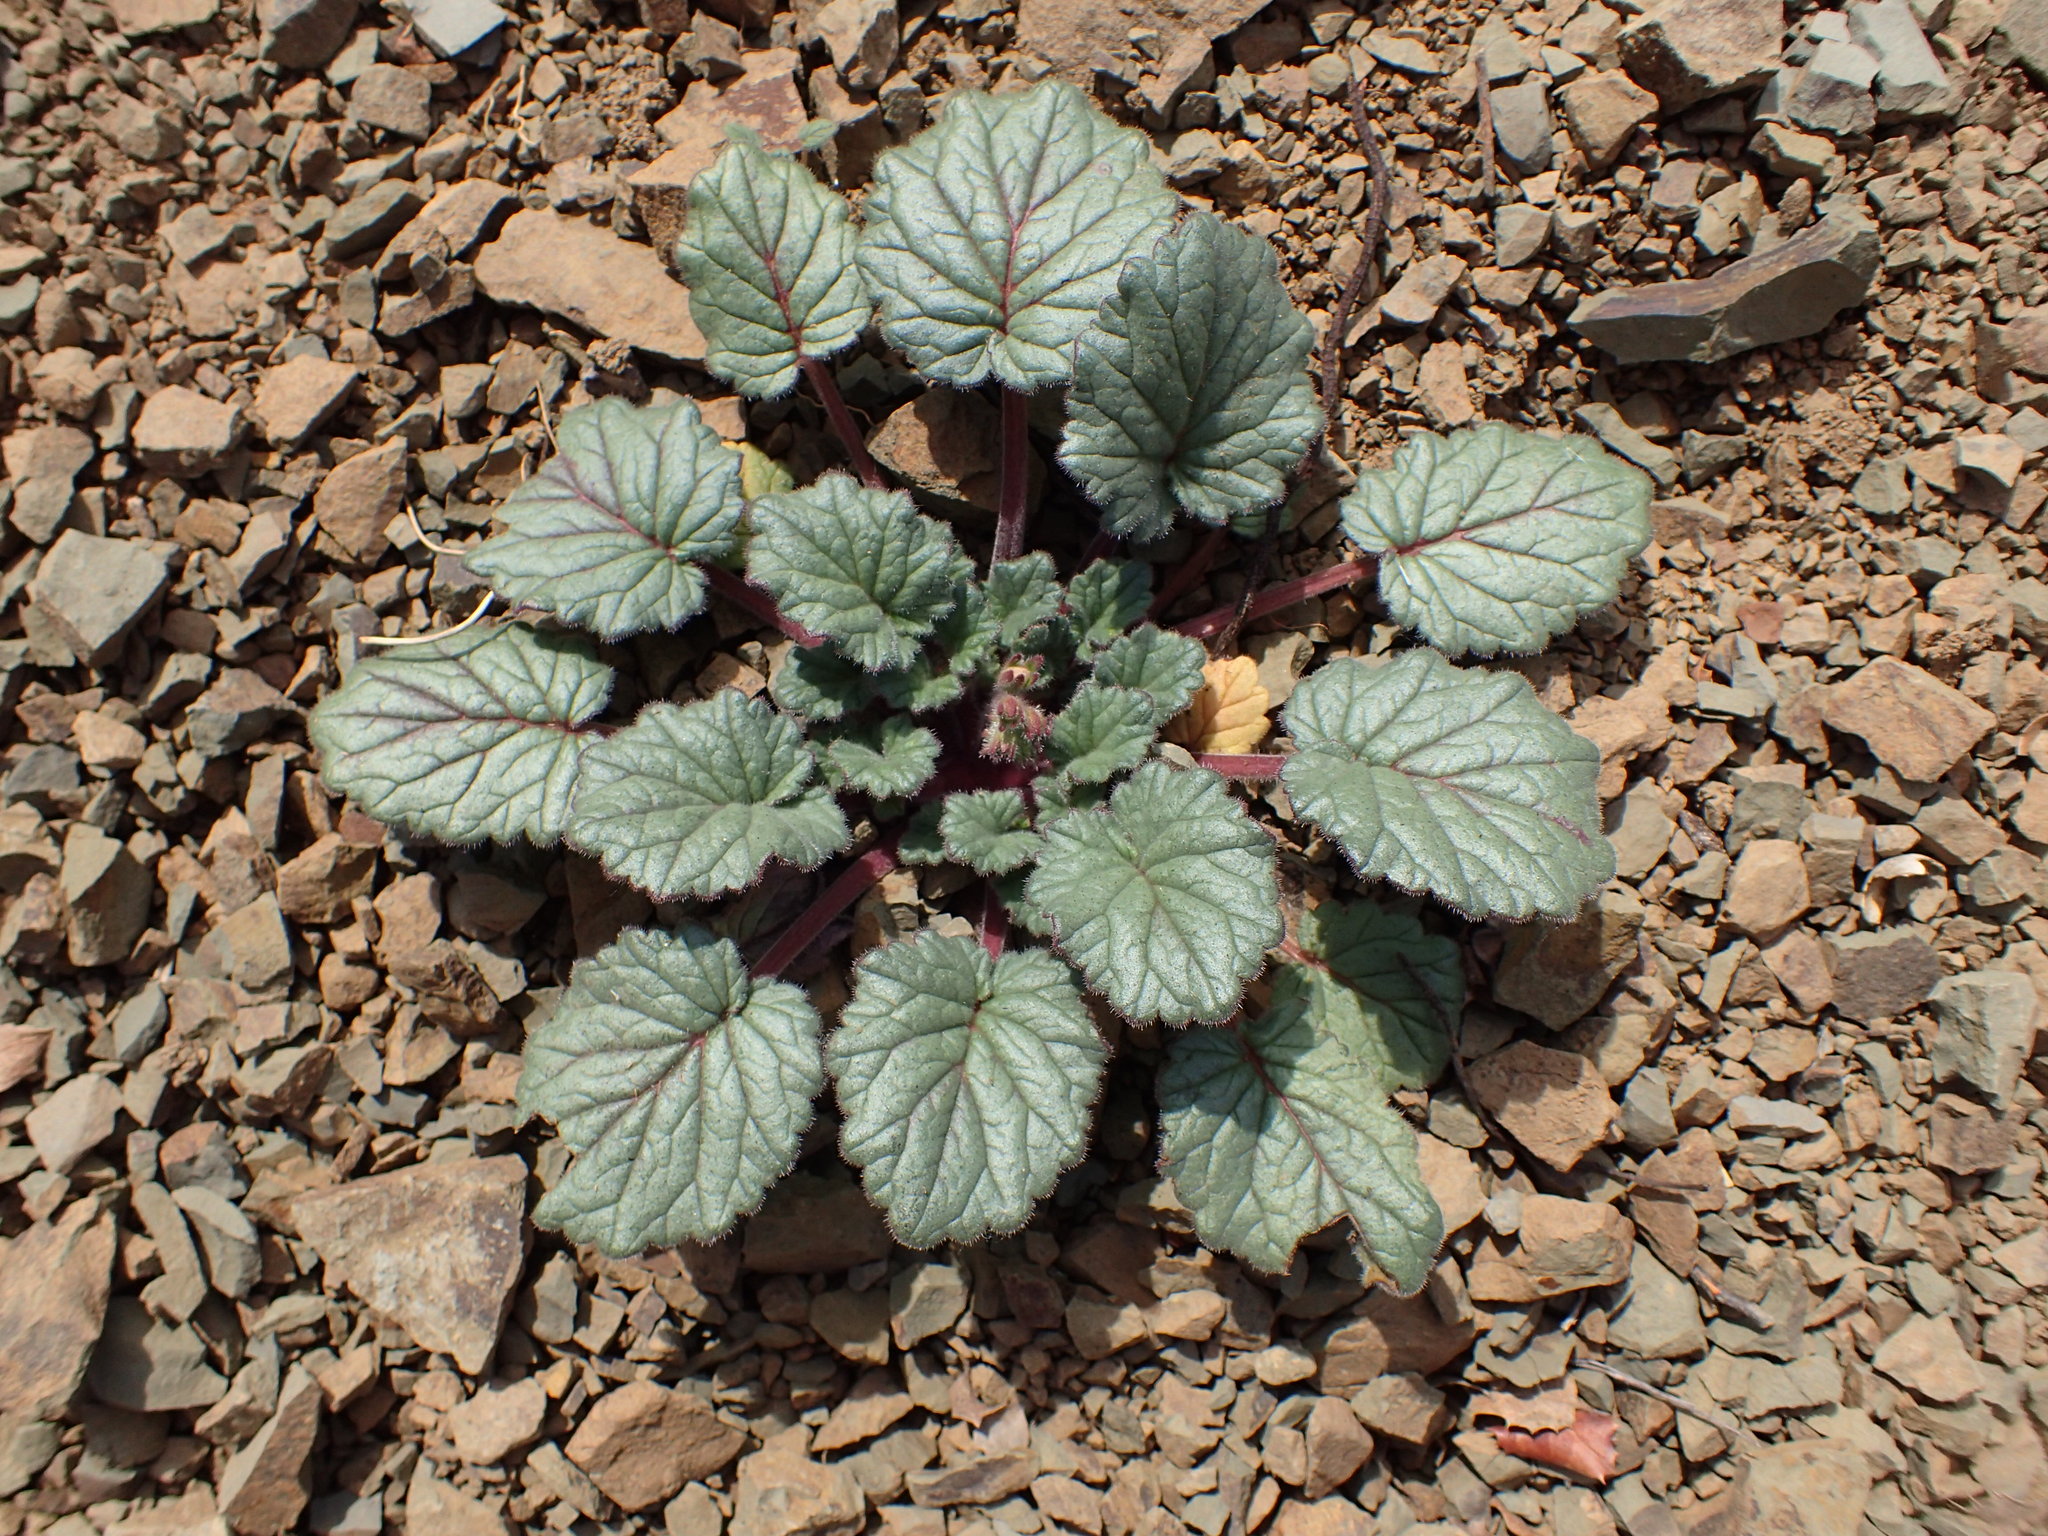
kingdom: Plantae
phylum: Tracheophyta
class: Magnoliopsida
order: Boraginales
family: Hydrophyllaceae
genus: Phacelia
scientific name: Phacelia longipes
